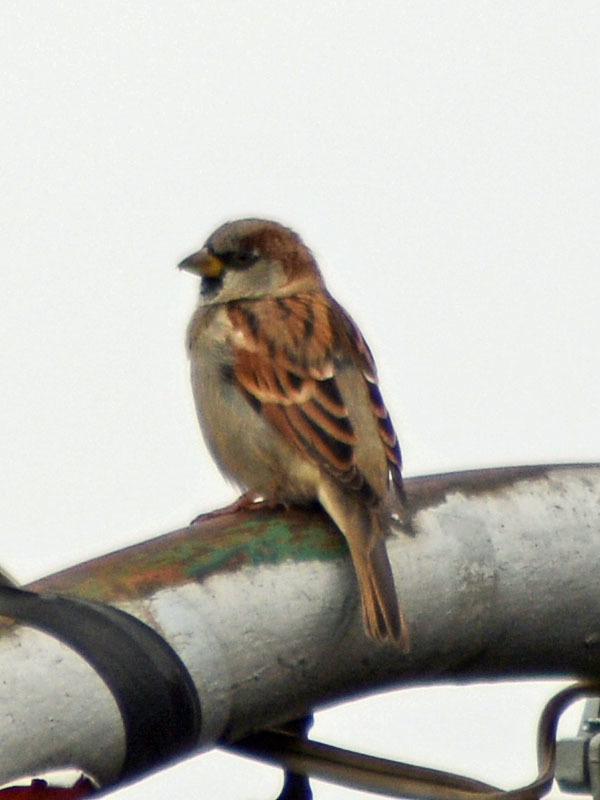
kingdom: Animalia
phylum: Chordata
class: Aves
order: Passeriformes
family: Passeridae
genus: Passer
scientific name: Passer domesticus
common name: House sparrow
